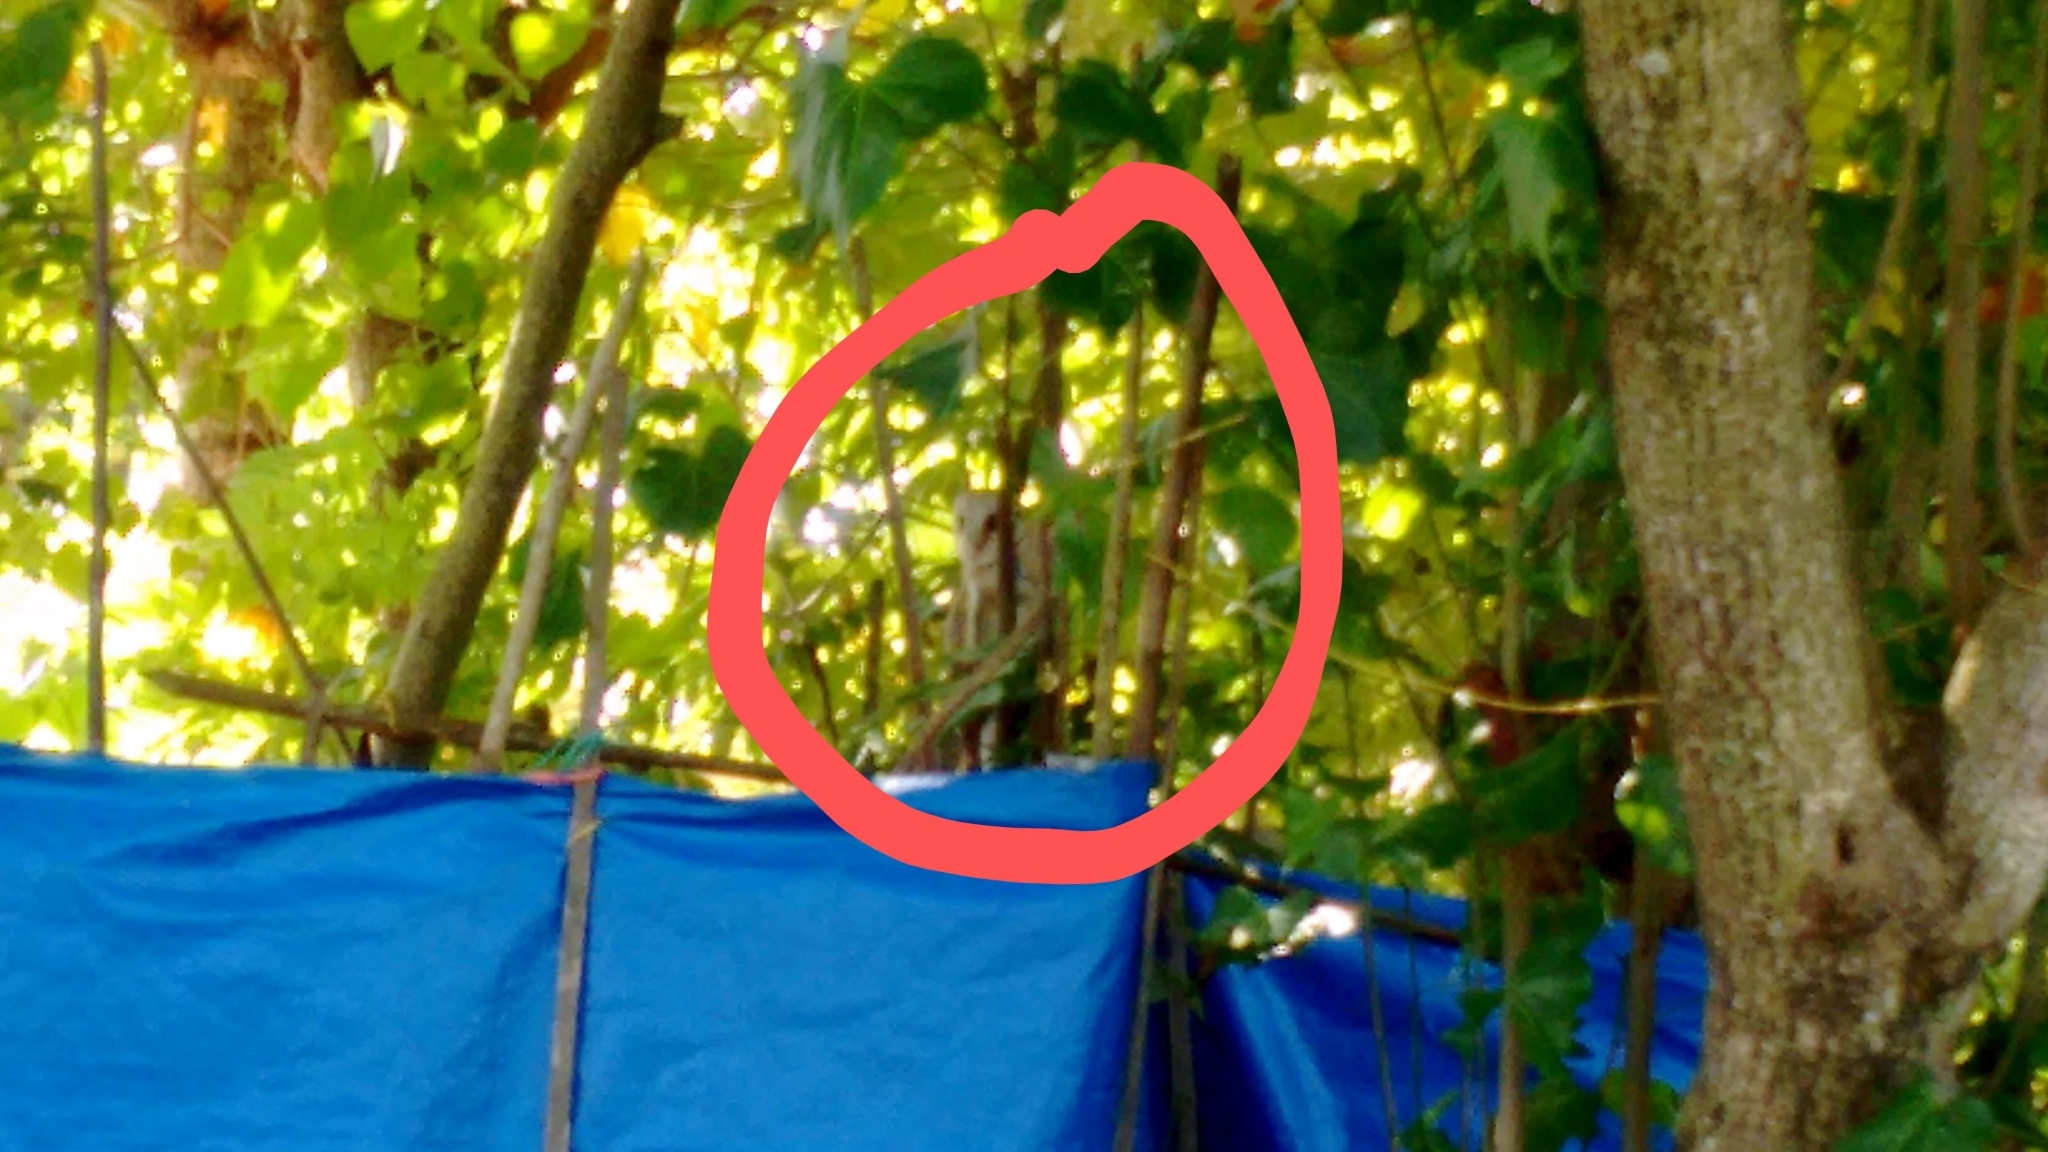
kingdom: Animalia
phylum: Chordata
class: Aves
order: Strigiformes
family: Tytonidae
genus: Tyto
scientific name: Tyto alba
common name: Barn owl
